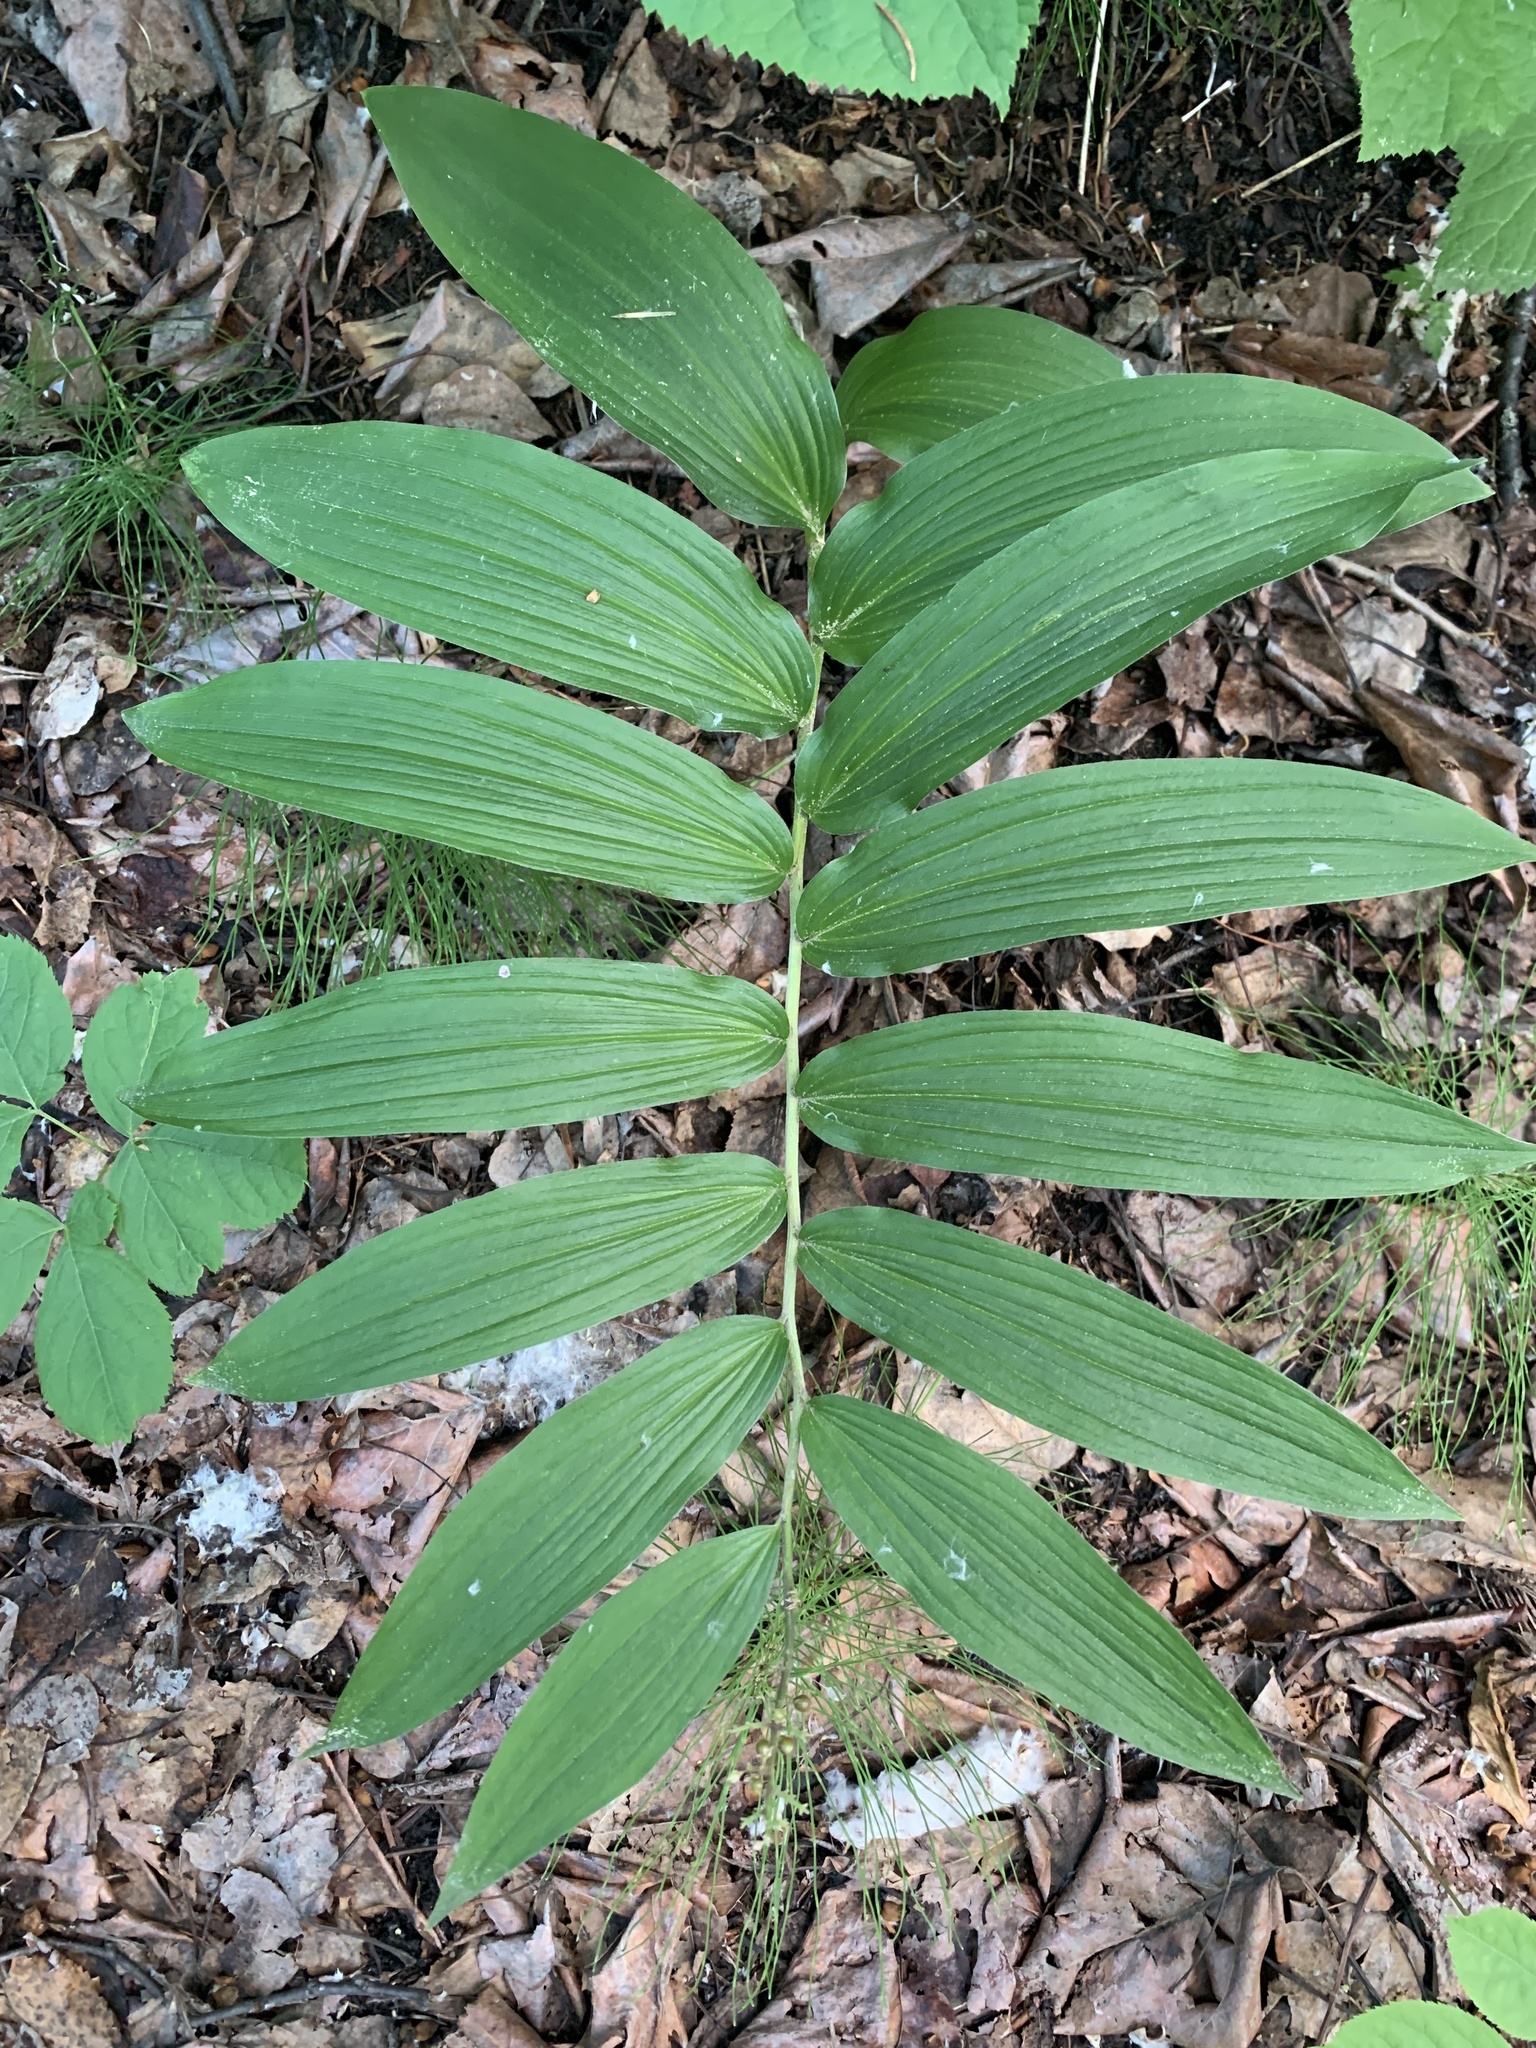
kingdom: Plantae
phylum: Tracheophyta
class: Liliopsida
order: Asparagales
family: Asparagaceae
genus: Maianthemum
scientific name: Maianthemum racemosum
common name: False spikenard
